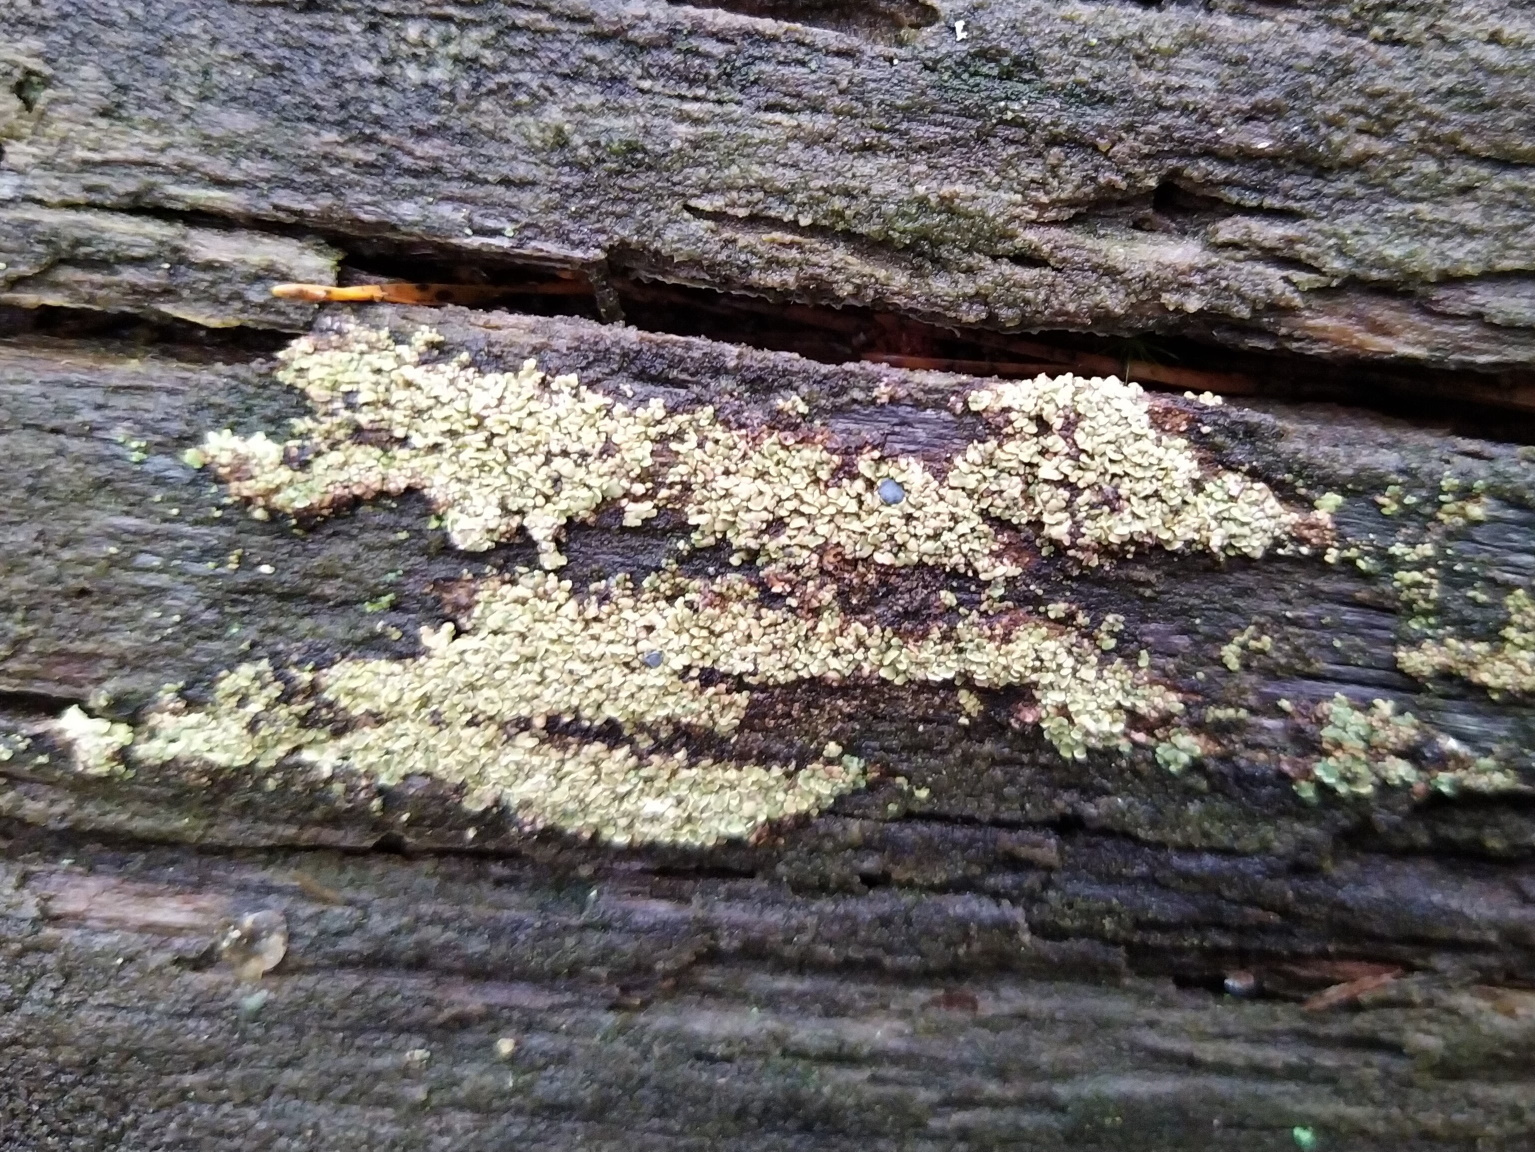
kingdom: Fungi
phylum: Ascomycota
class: Lecanoromycetes
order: Umbilicariales
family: Ophioparmaceae
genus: Hypocenomyce
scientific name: Hypocenomyce scalaris
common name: Common clam lichen
